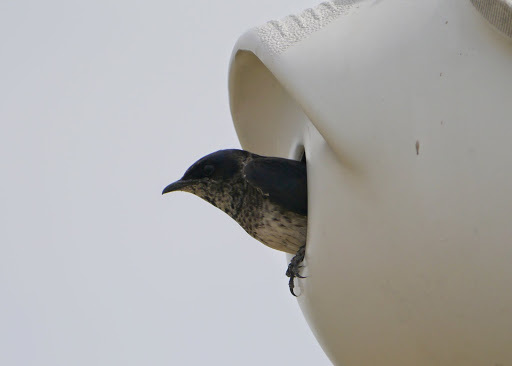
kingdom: Animalia
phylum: Chordata
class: Aves
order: Passeriformes
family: Hirundinidae
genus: Progne
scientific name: Progne subis
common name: Purple martin
